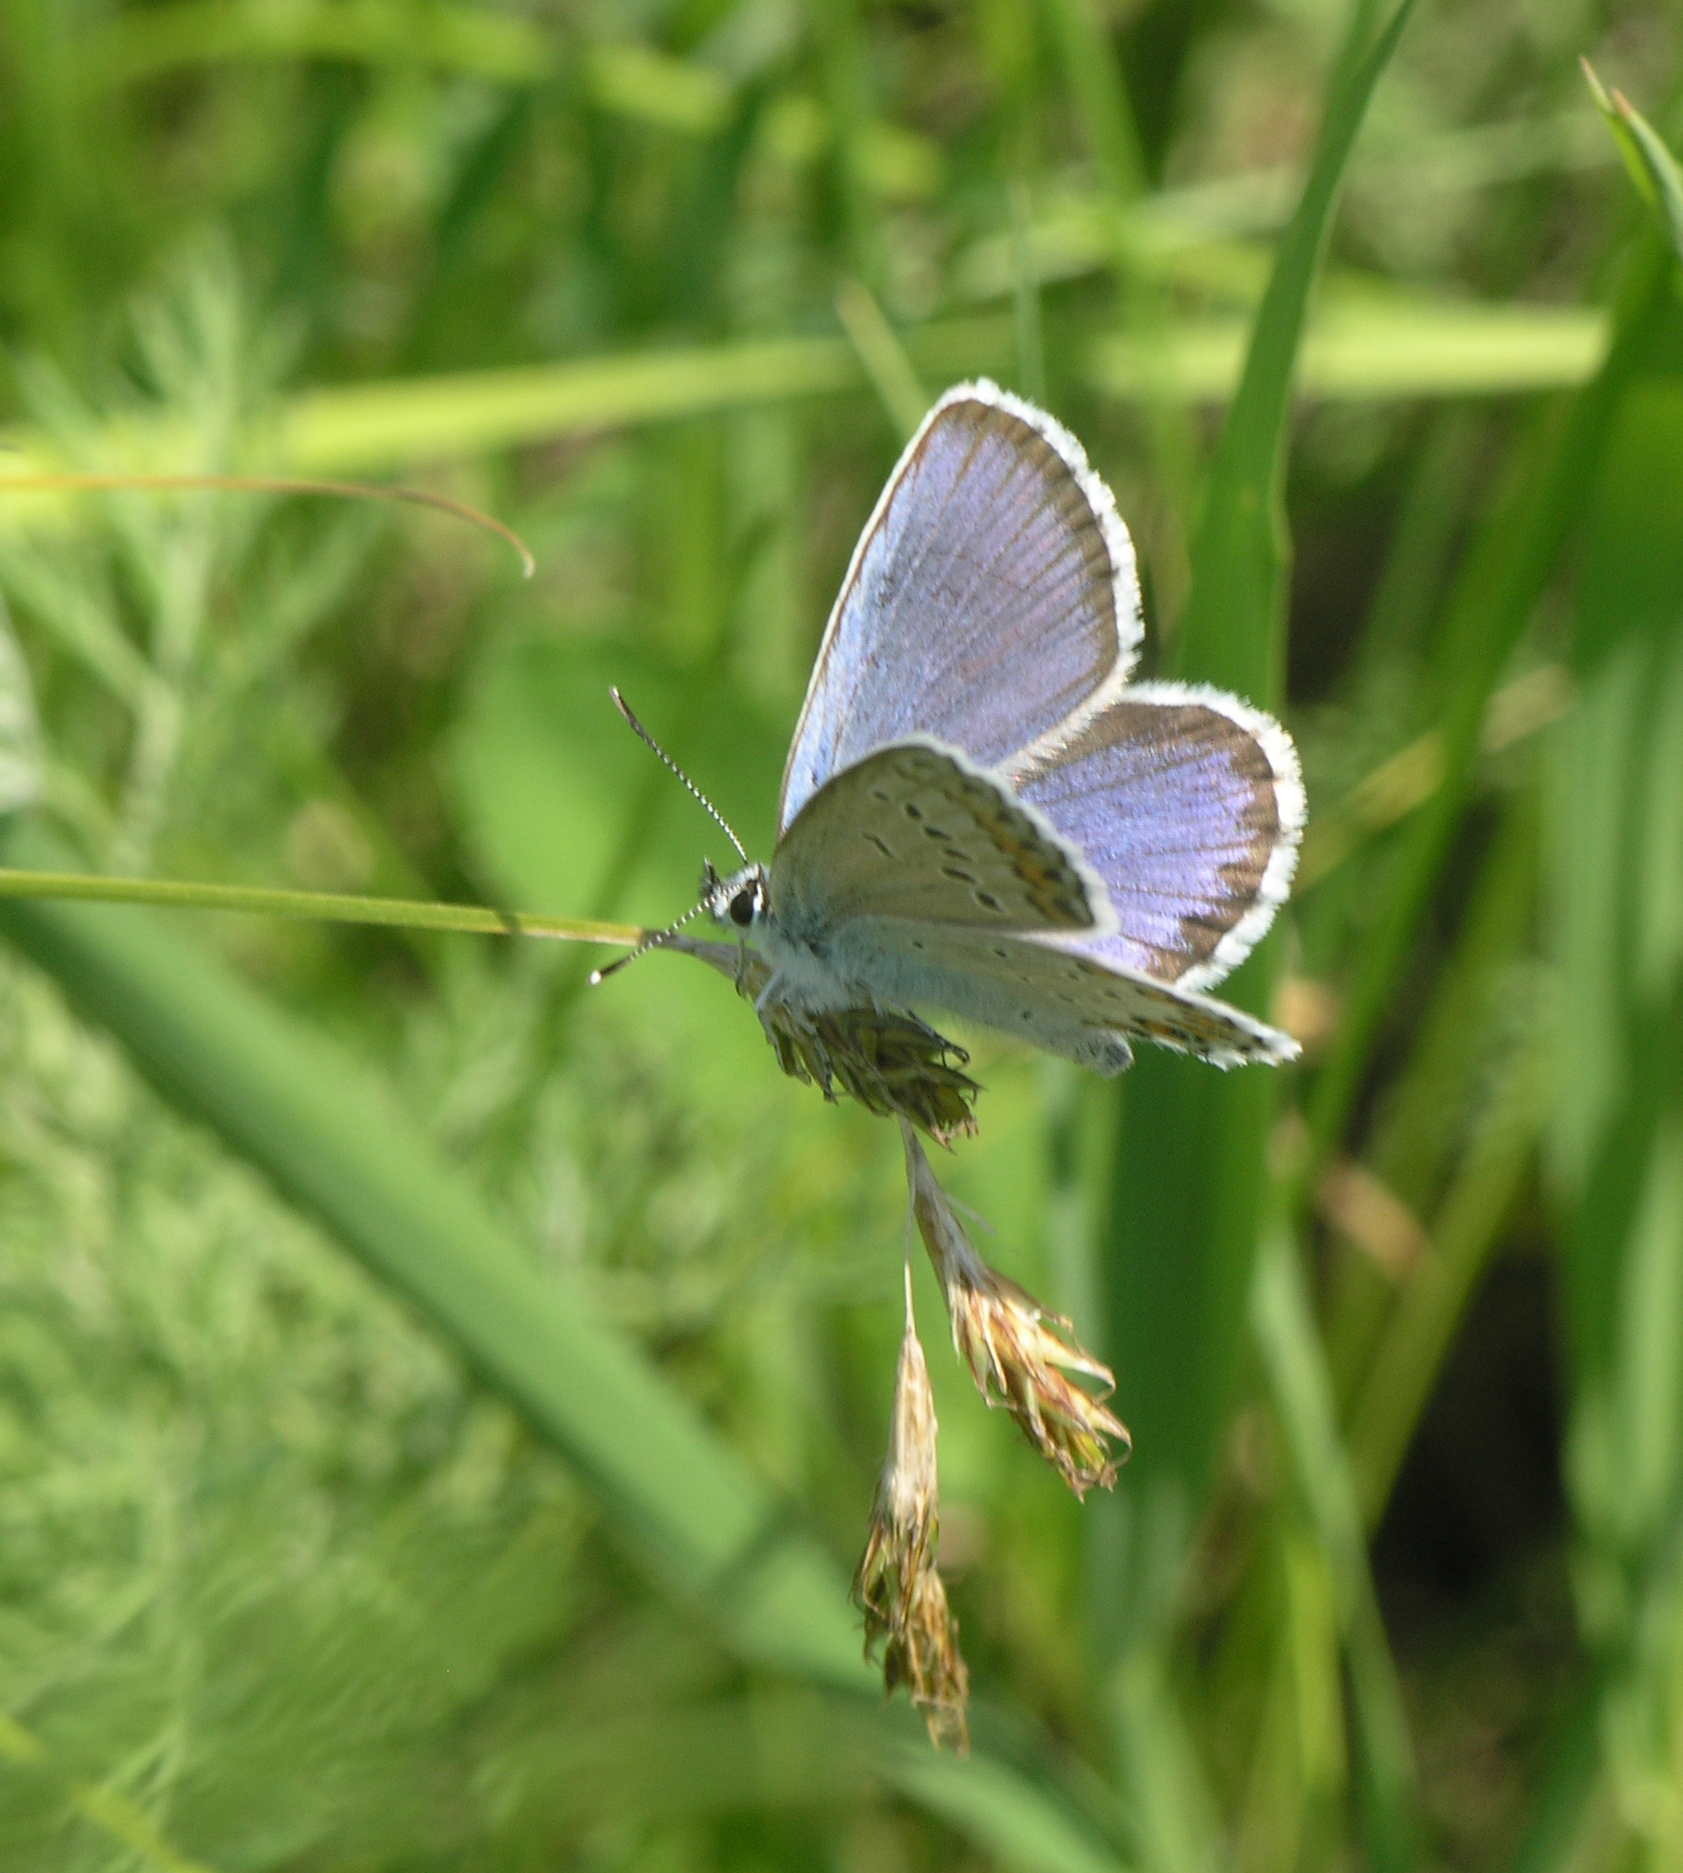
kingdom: Animalia
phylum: Arthropoda
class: Insecta
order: Lepidoptera
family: Lycaenidae
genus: Lycaeides
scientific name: Lycaeides idas
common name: Northern blue
